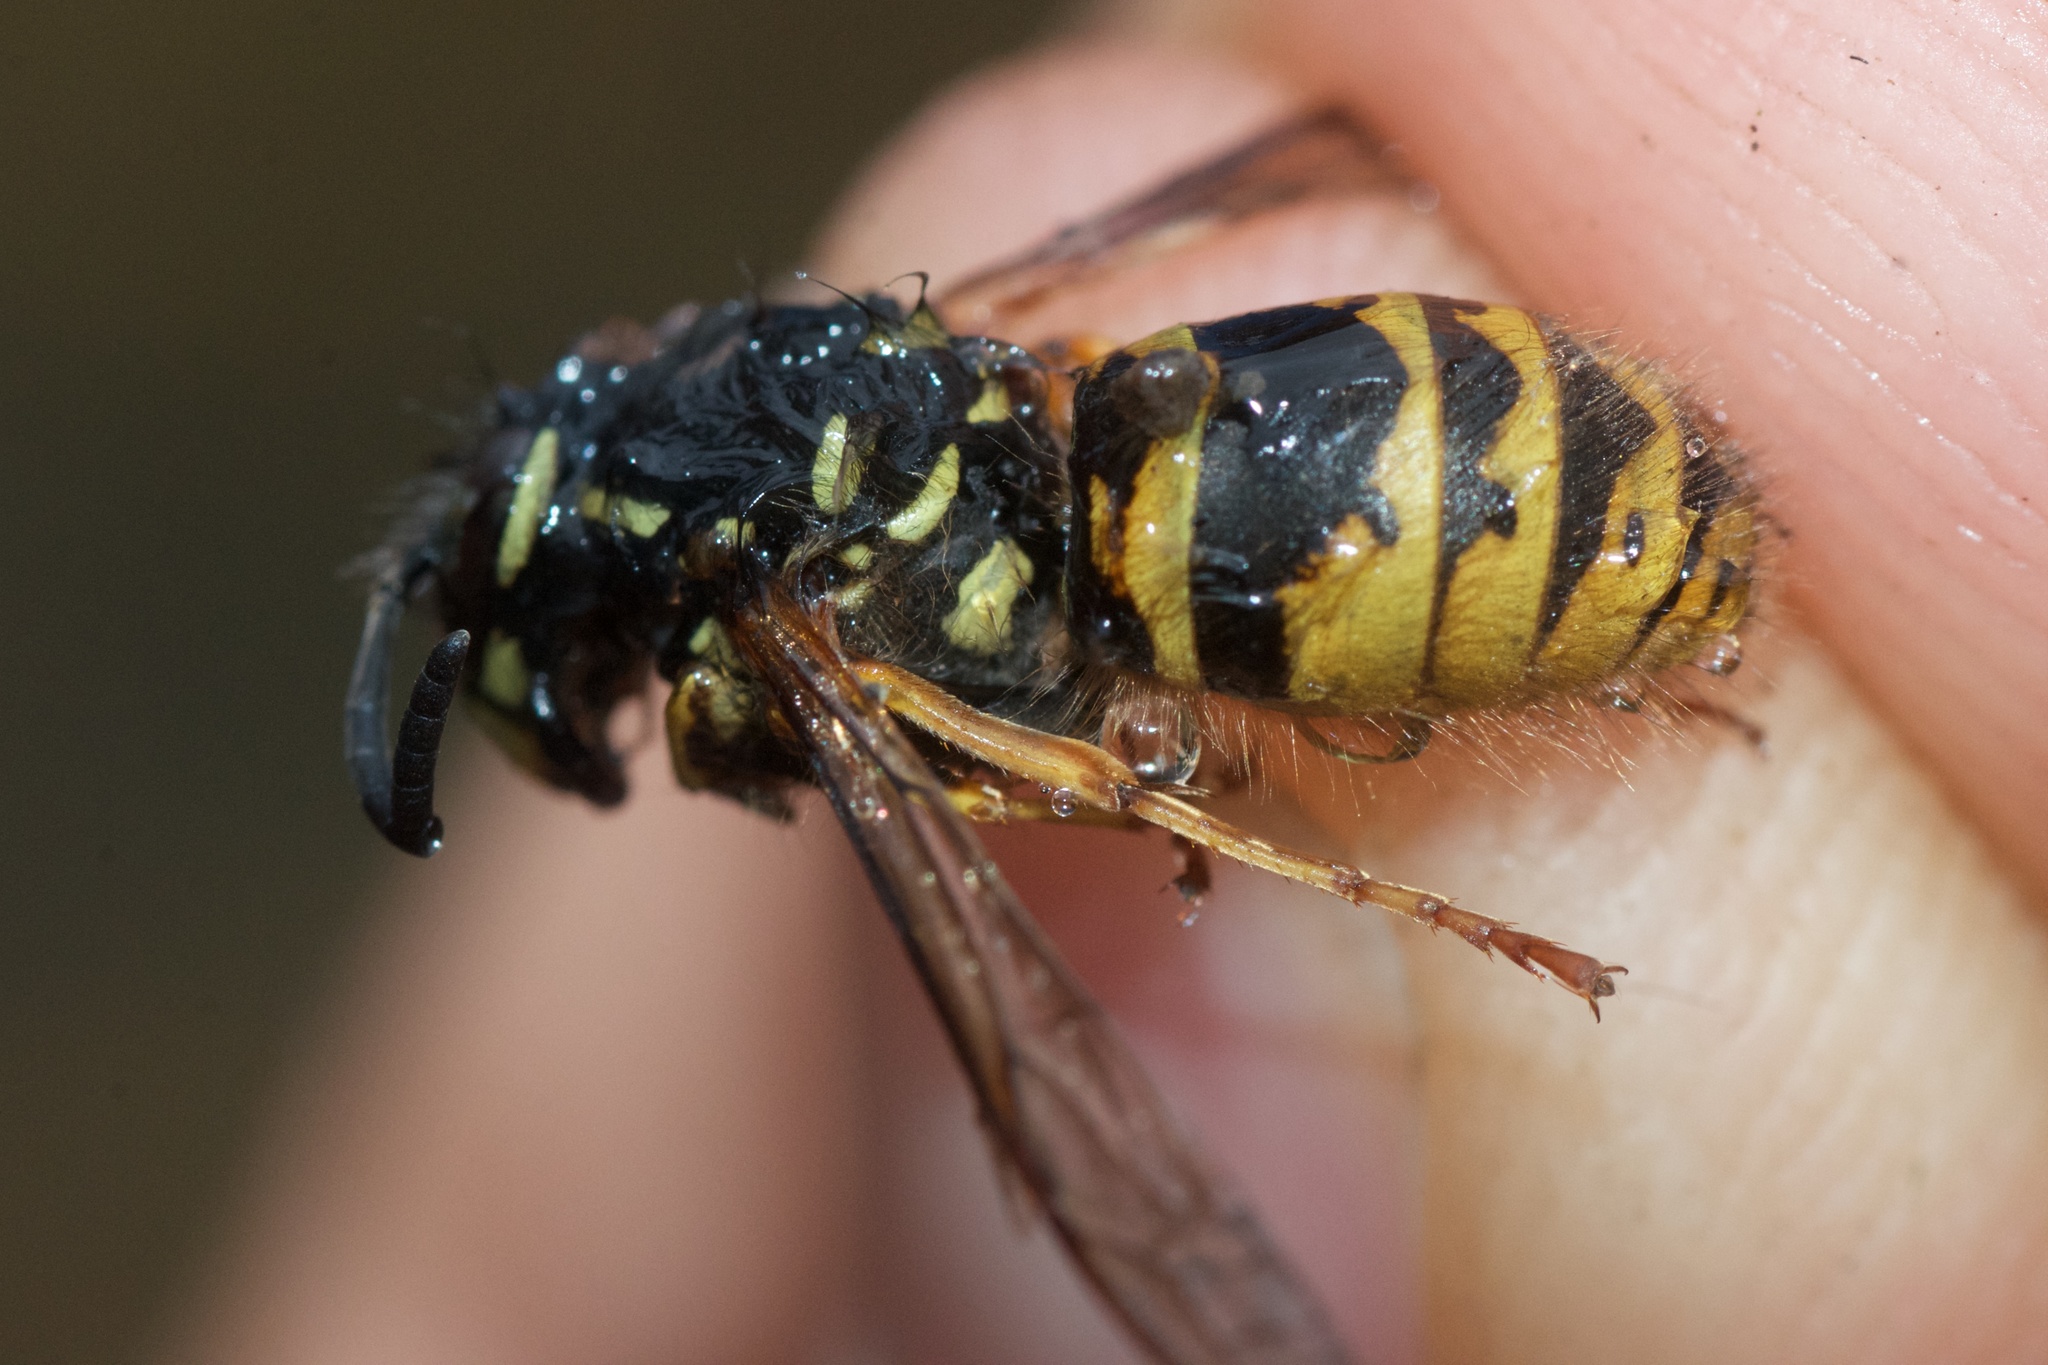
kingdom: Animalia
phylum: Arthropoda
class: Insecta
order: Hymenoptera
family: Vespidae
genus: Vespula
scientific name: Vespula vulgaris
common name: Common wasp
